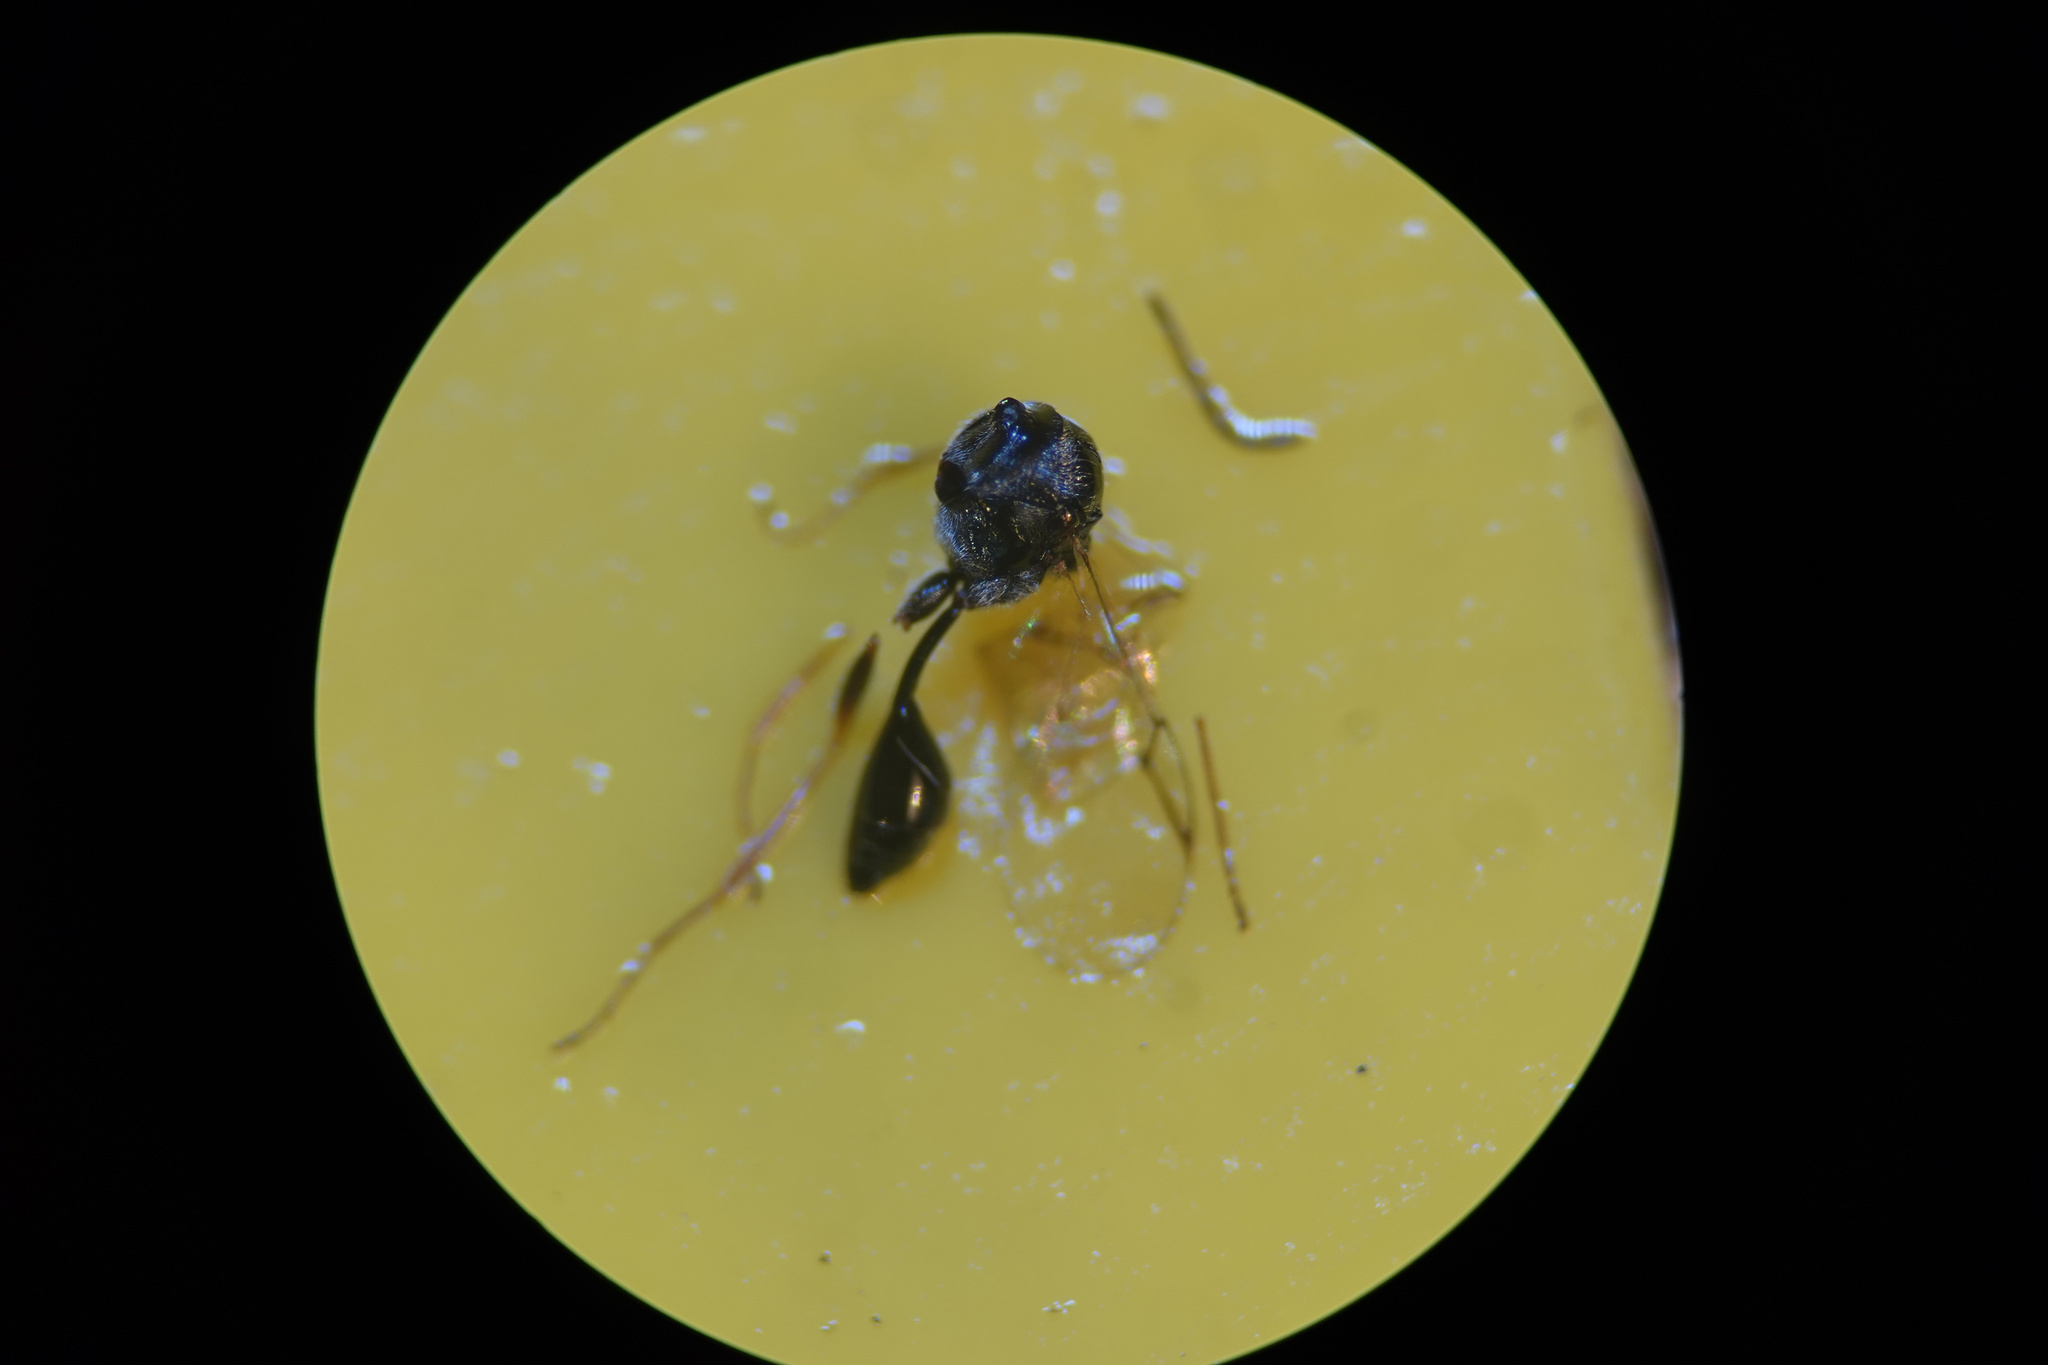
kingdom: Animalia
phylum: Arthropoda
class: Insecta
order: Hymenoptera
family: Figitidae
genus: Anacharis
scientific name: Anacharis zealandica
